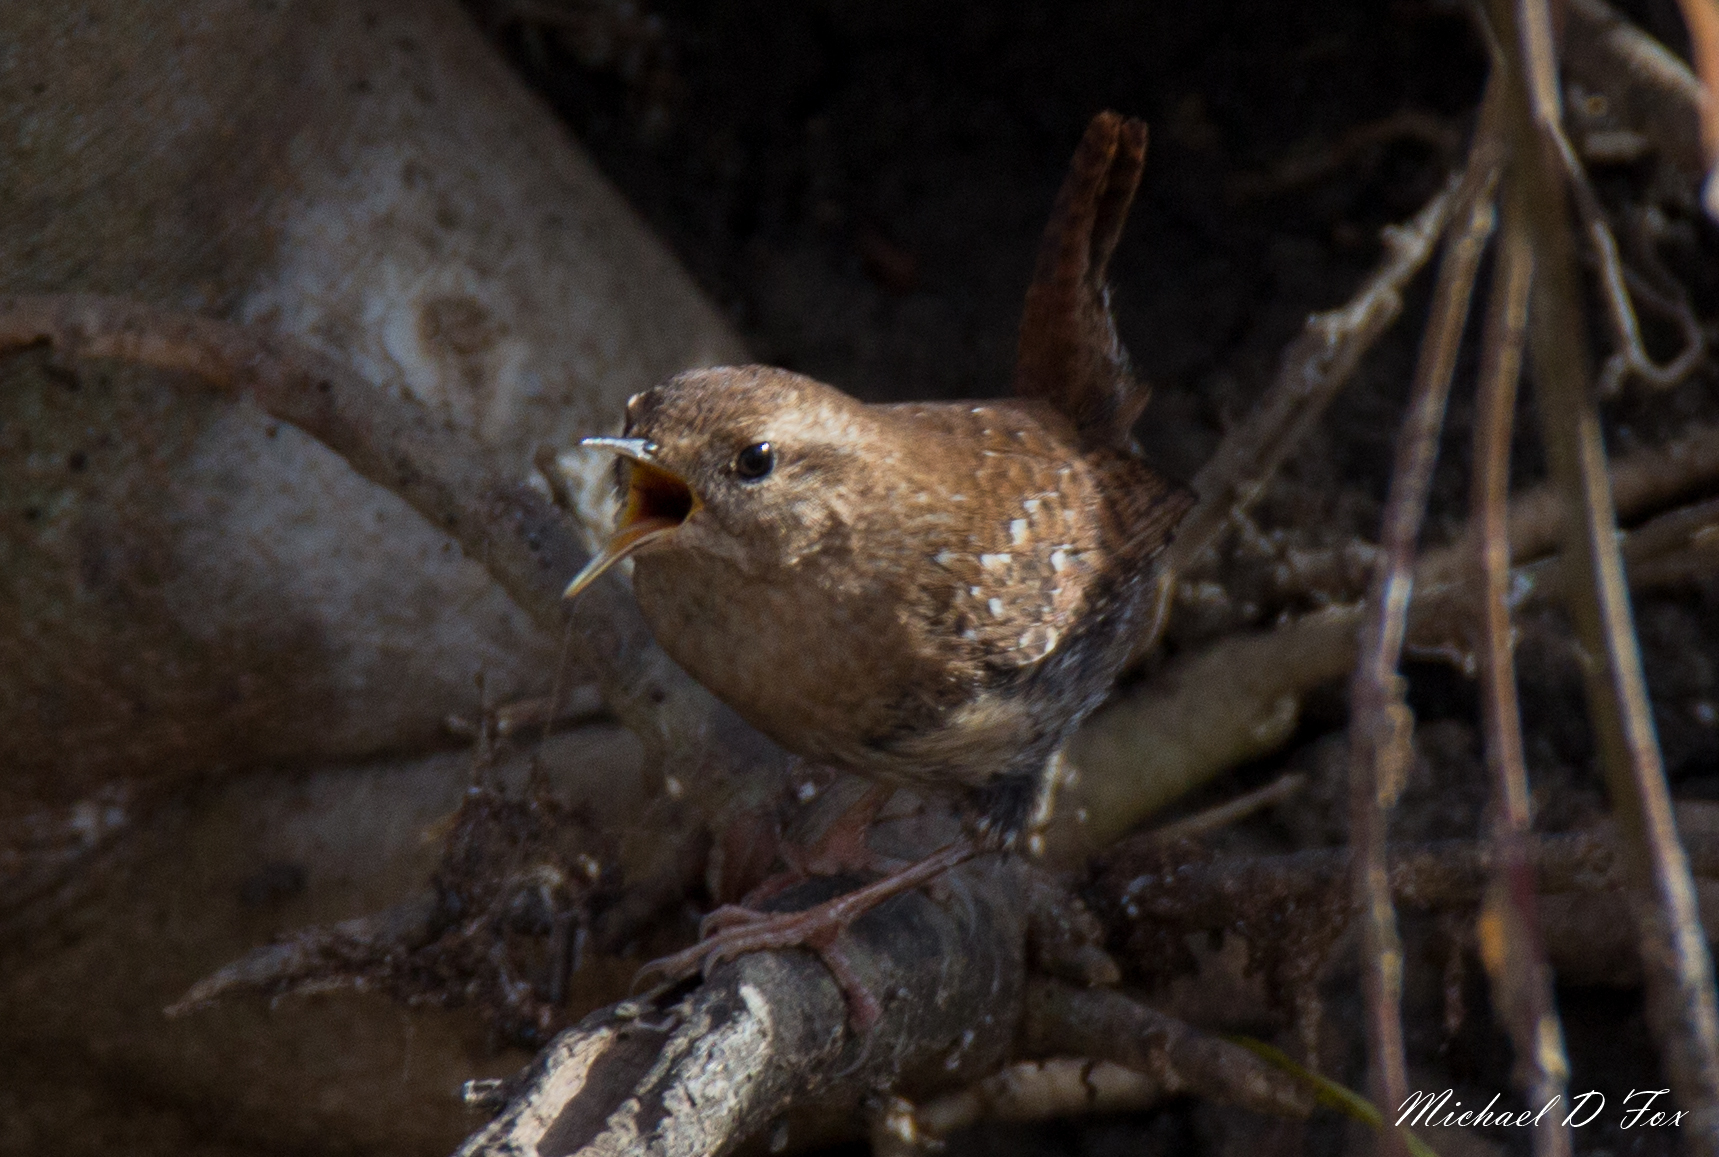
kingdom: Animalia
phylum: Chordata
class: Aves
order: Passeriformes
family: Troglodytidae
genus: Troglodytes
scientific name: Troglodytes aedon
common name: House wren
